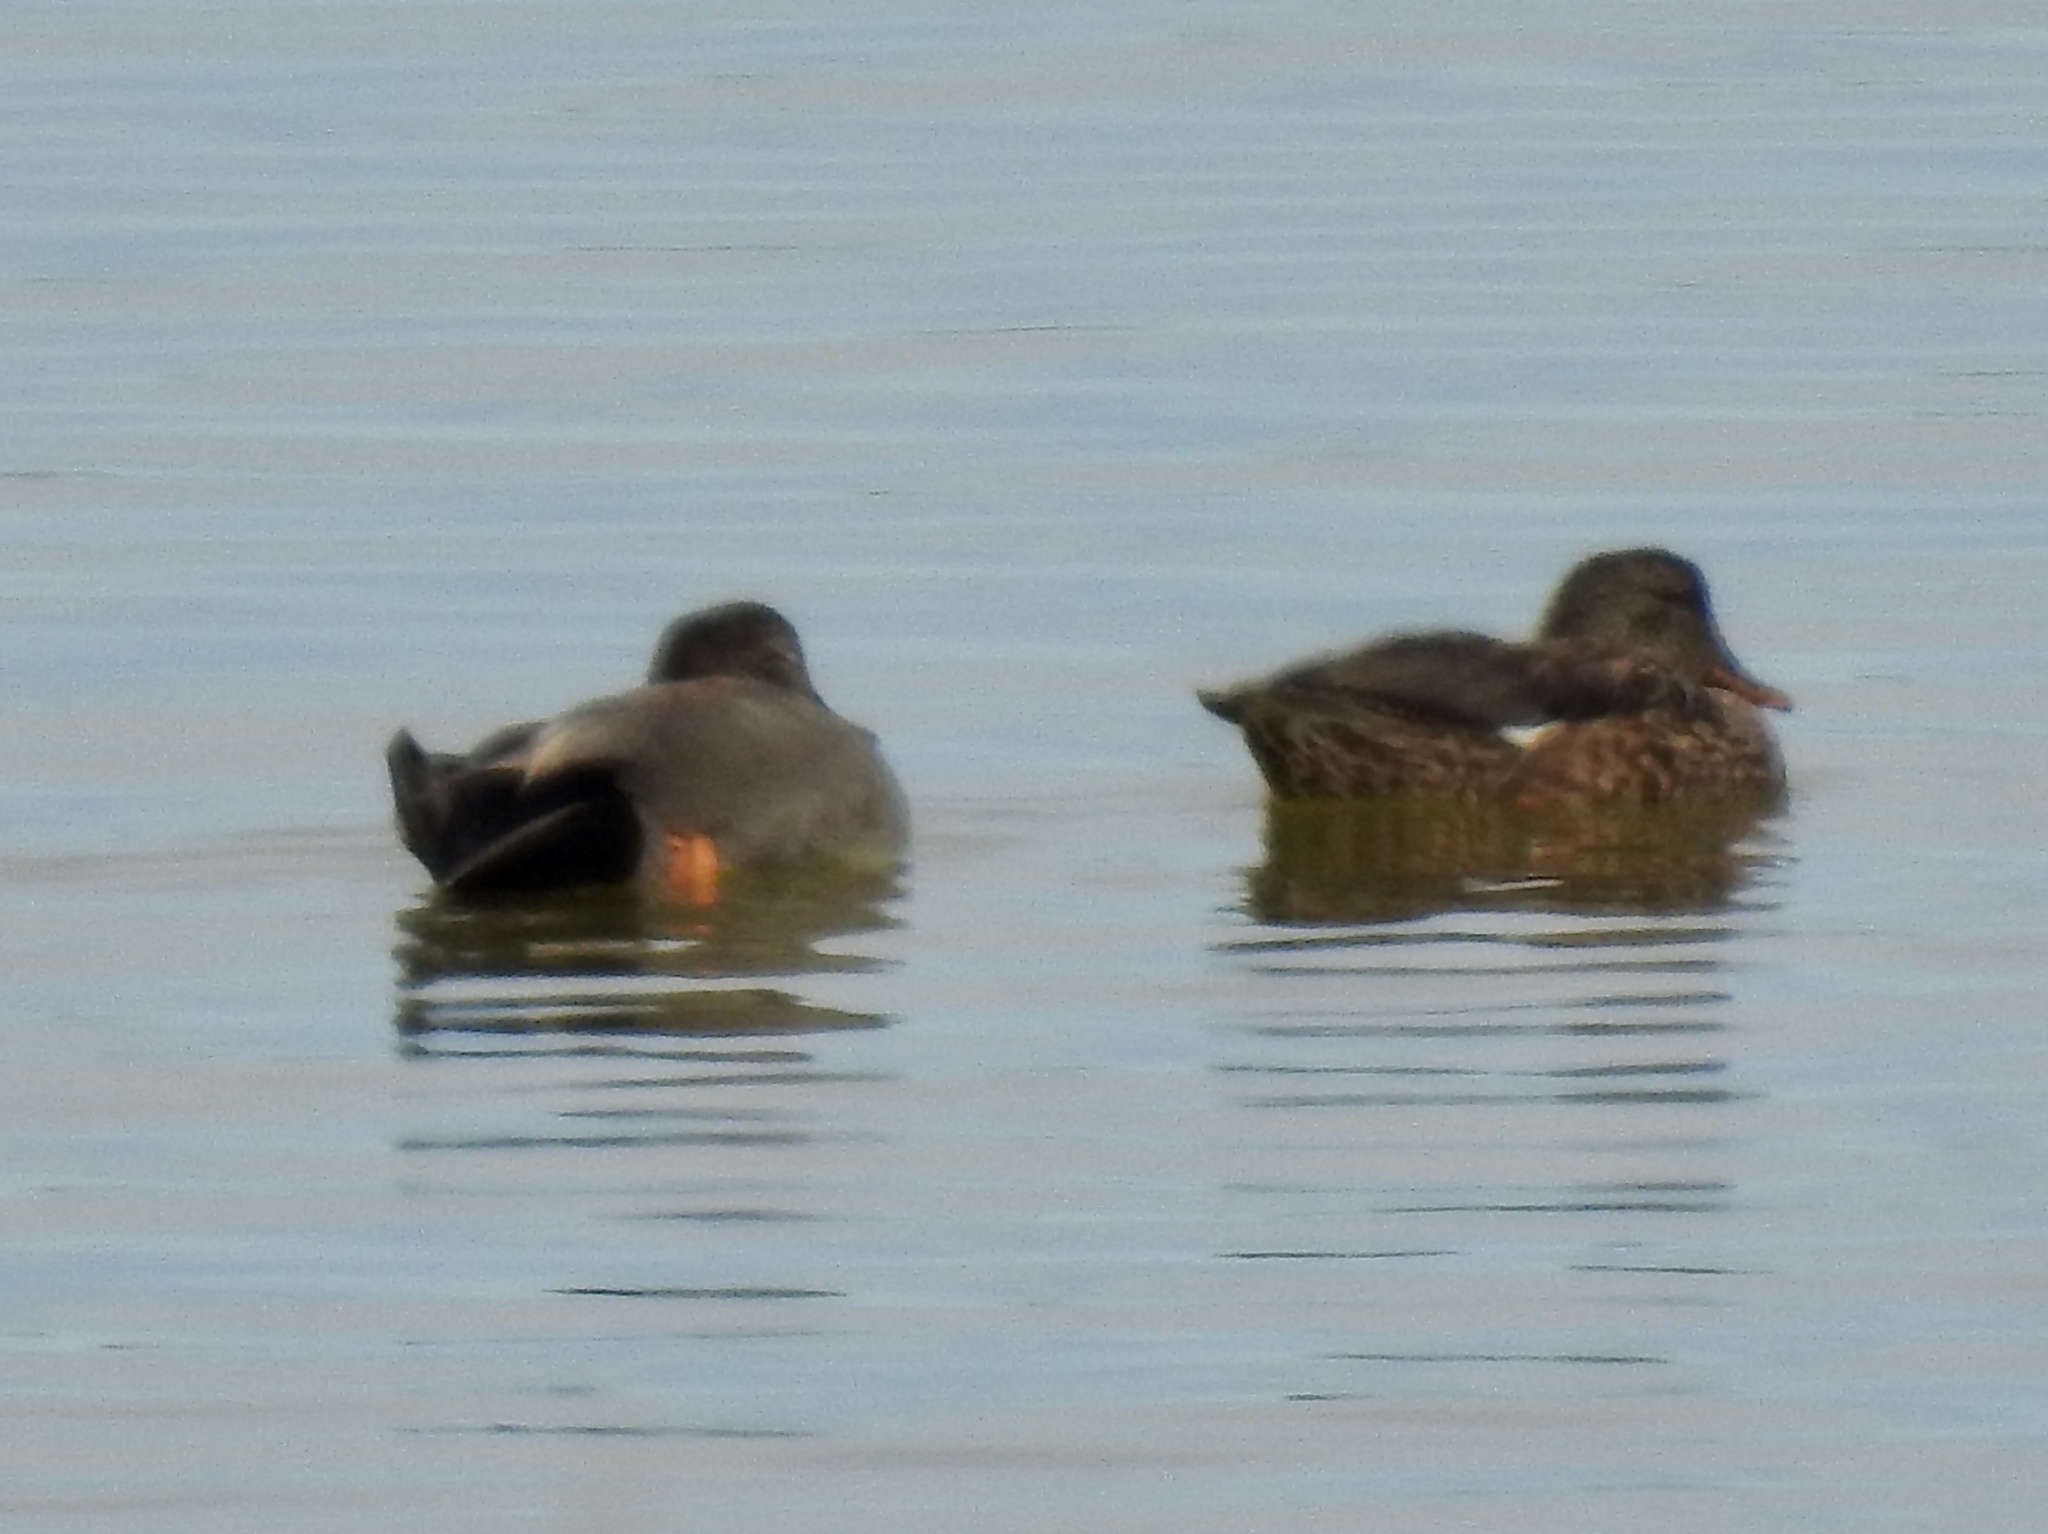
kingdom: Animalia
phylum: Chordata
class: Aves
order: Anseriformes
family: Anatidae
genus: Mareca
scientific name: Mareca strepera
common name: Gadwall
